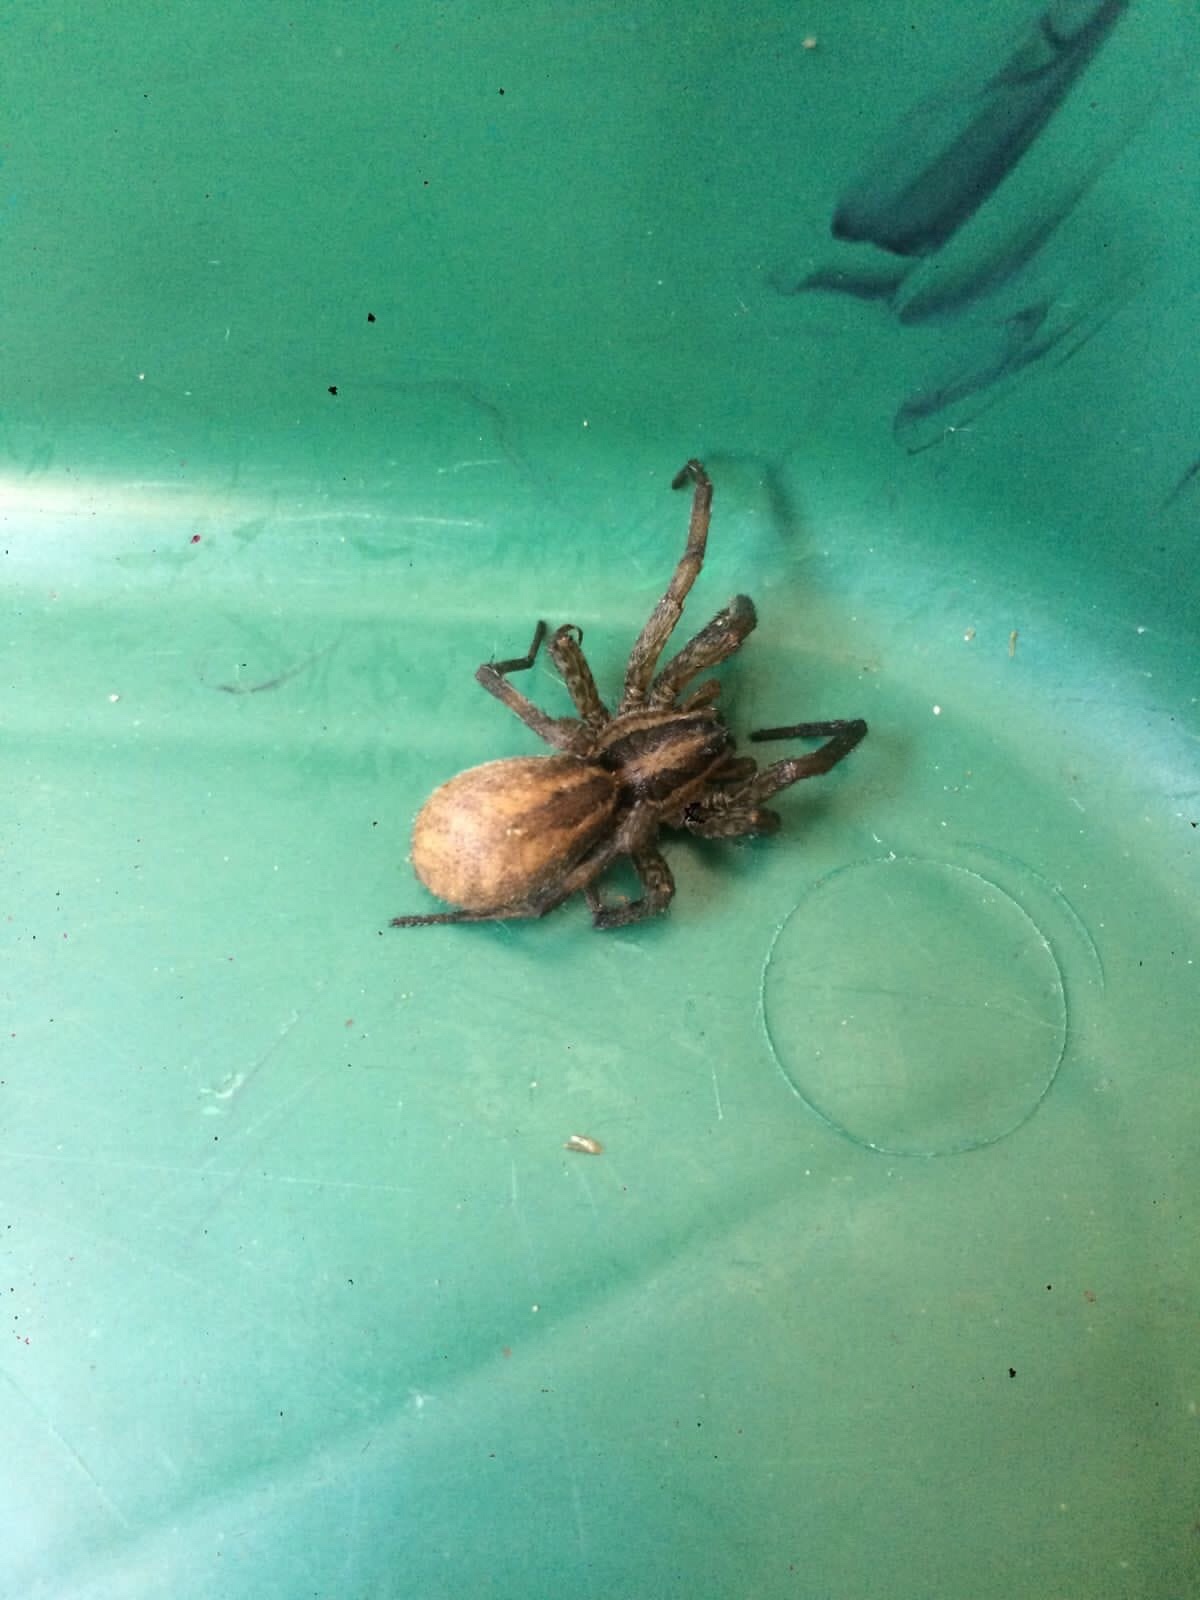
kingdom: Animalia
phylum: Arthropoda
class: Arachnida
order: Araneae
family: Lycosidae
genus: Hogna
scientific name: Hogna radiata
